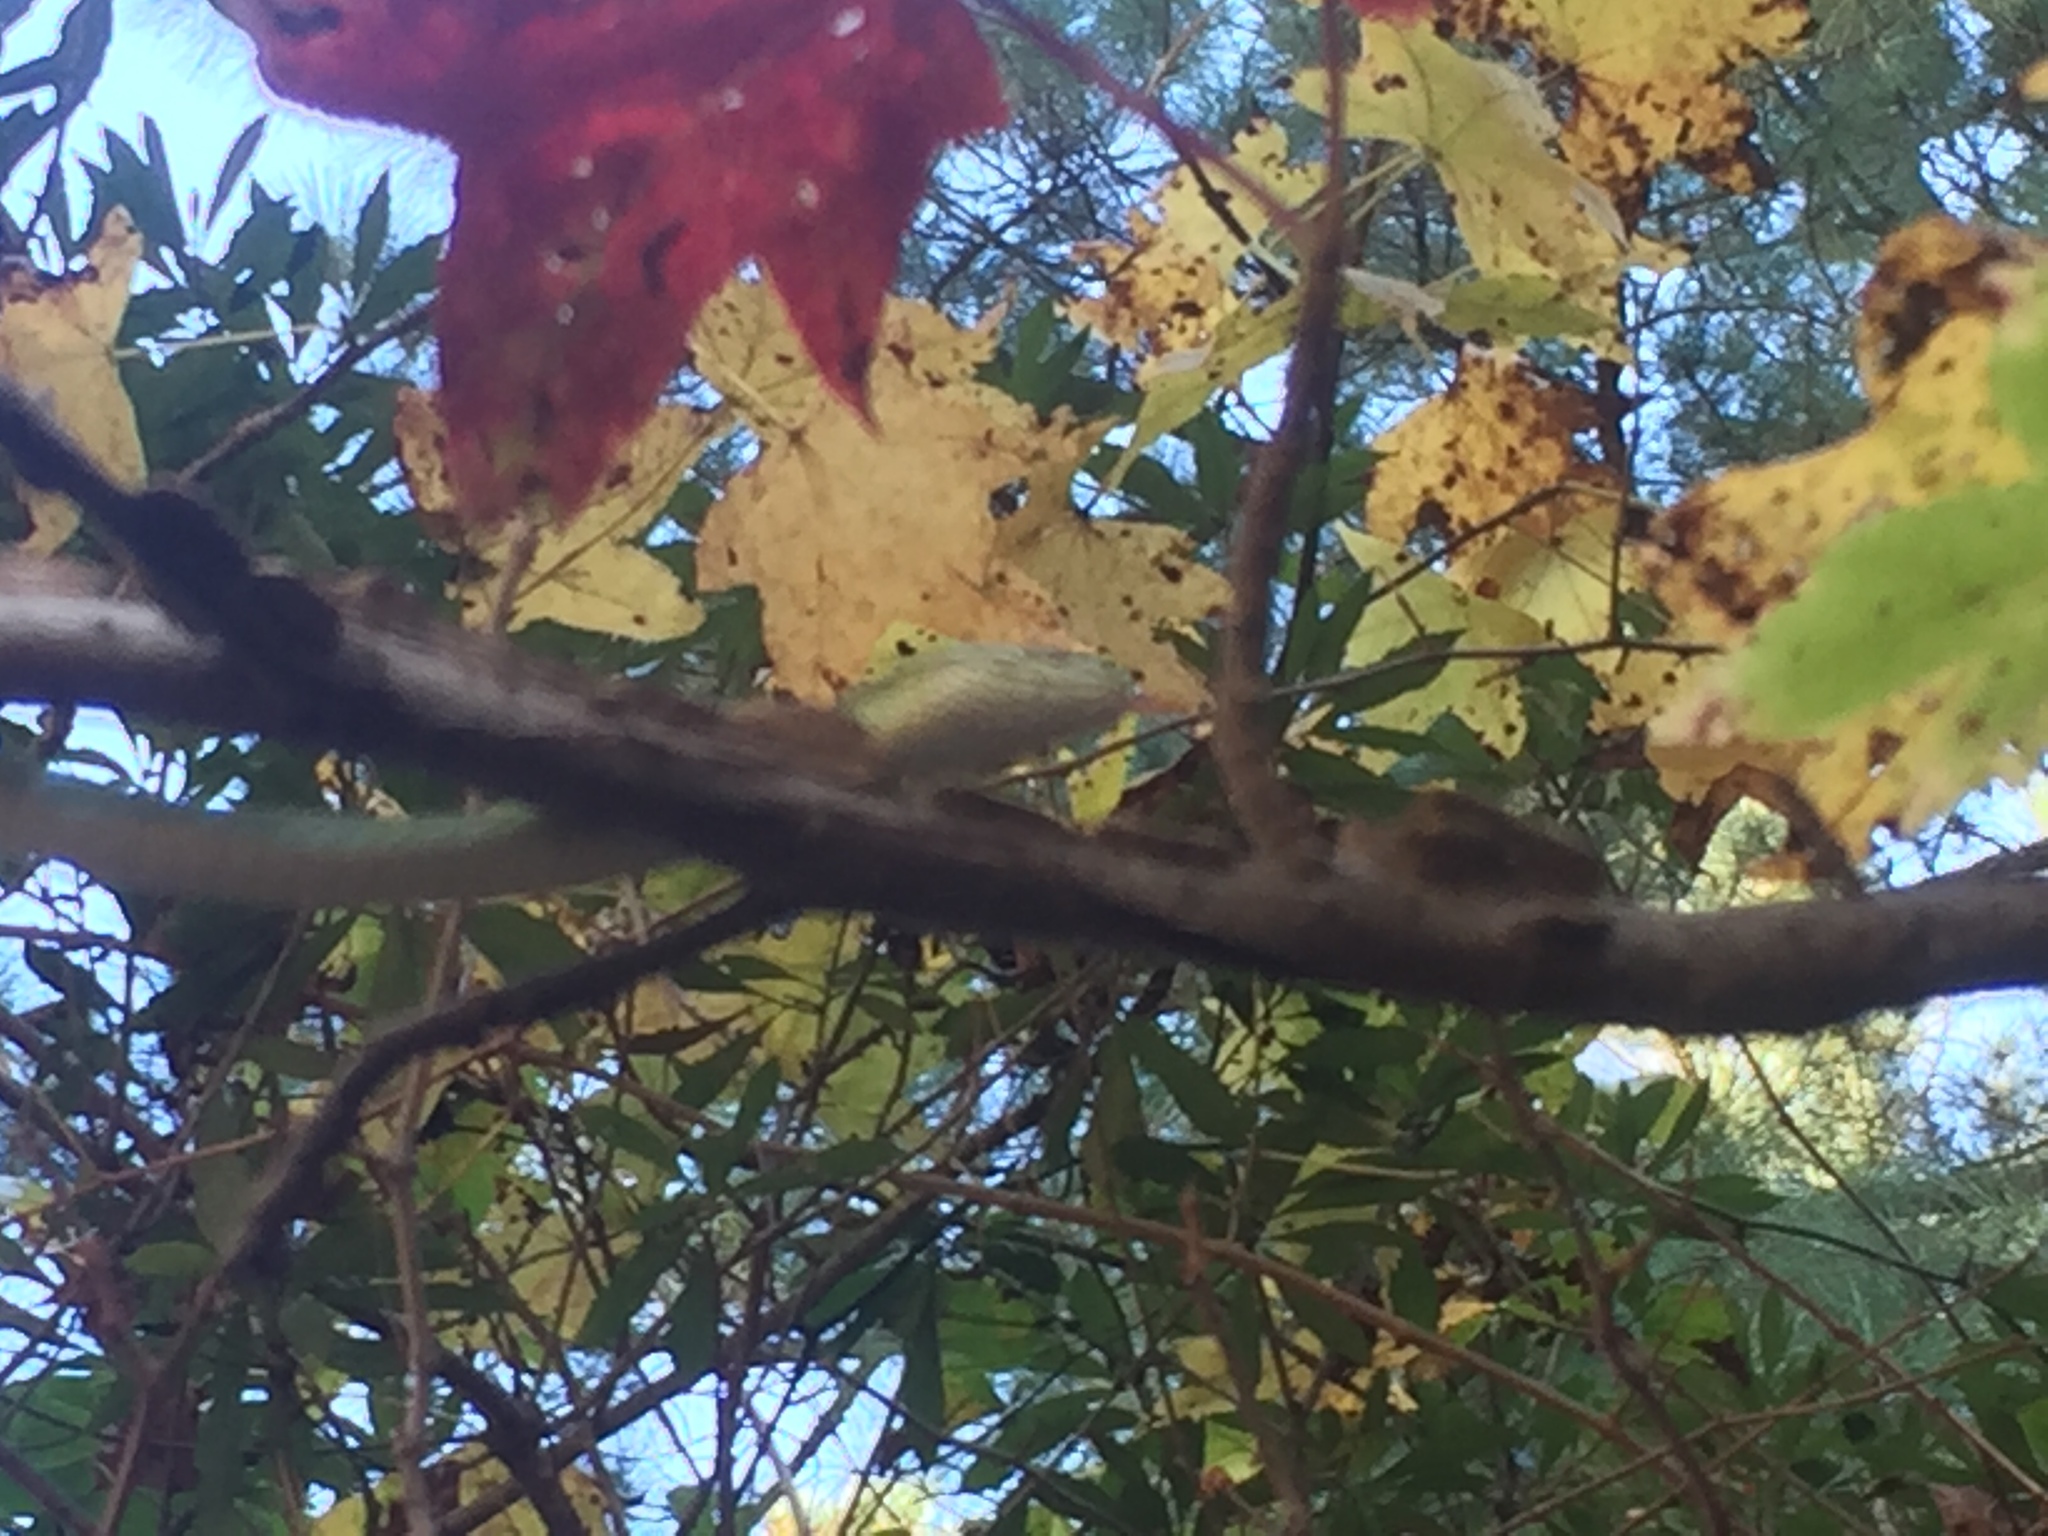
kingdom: Animalia
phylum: Chordata
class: Squamata
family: Colubridae
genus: Opheodrys
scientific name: Opheodrys aestivus
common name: Rough greensnake
